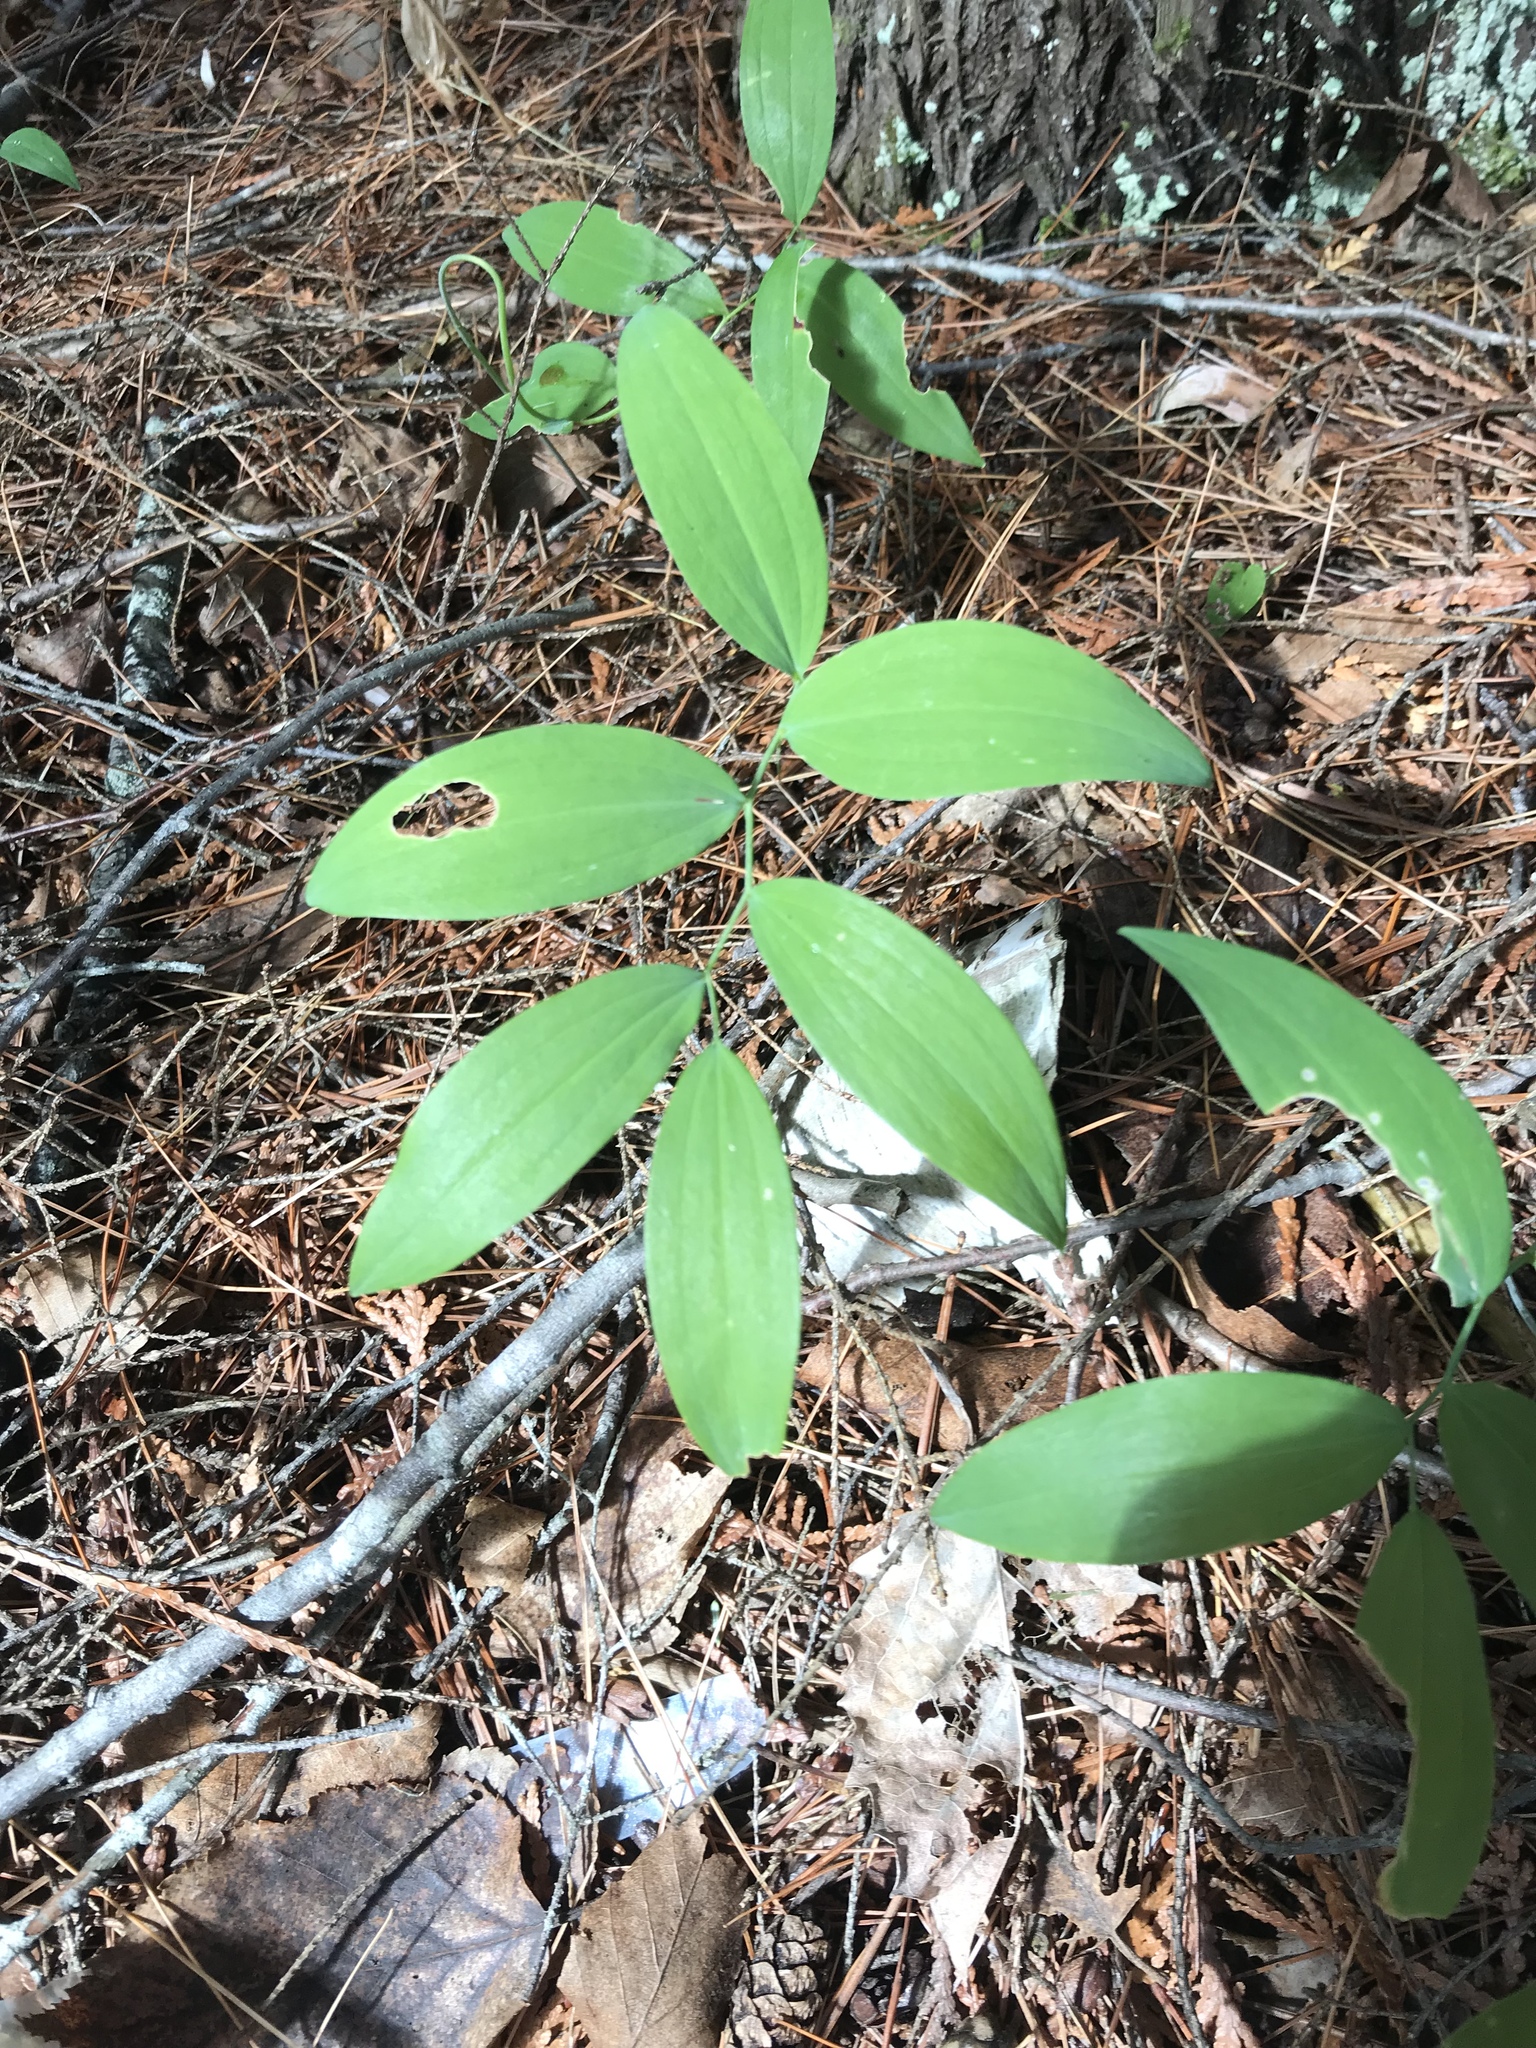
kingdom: Plantae
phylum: Tracheophyta
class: Liliopsida
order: Asparagales
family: Asparagaceae
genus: Polygonatum
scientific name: Polygonatum pubescens
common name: Downy solomon's seal
